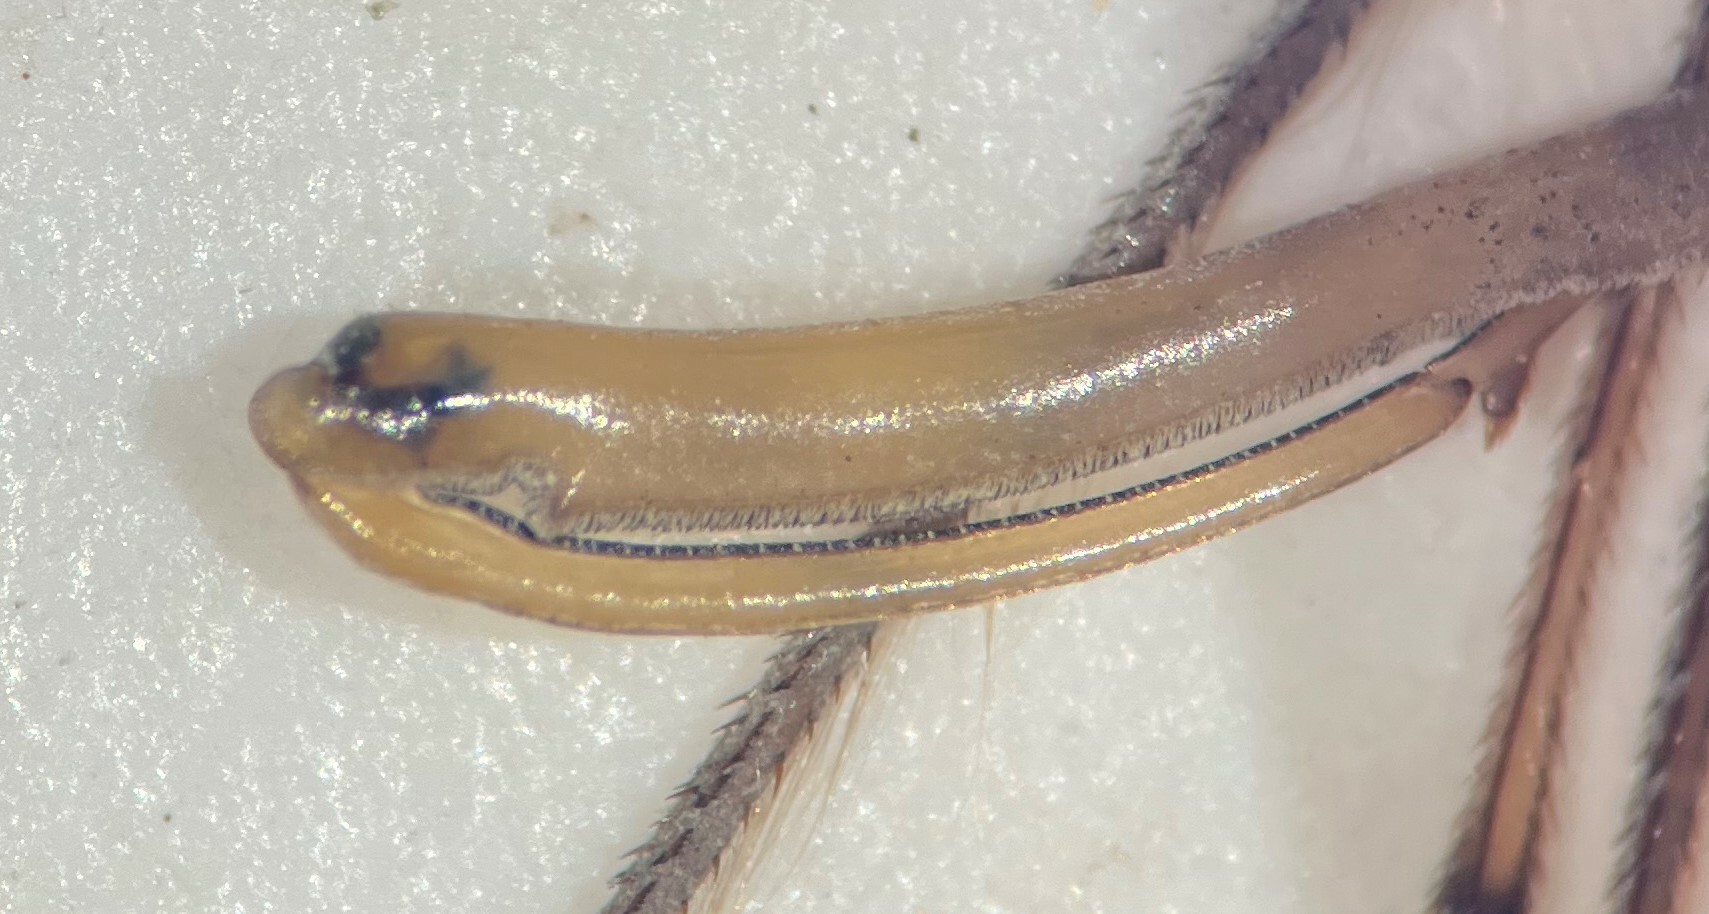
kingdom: Animalia
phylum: Arthropoda
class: Insecta
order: Hemiptera
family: Nepidae
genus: Ranatra
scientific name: Ranatra quadridentata
